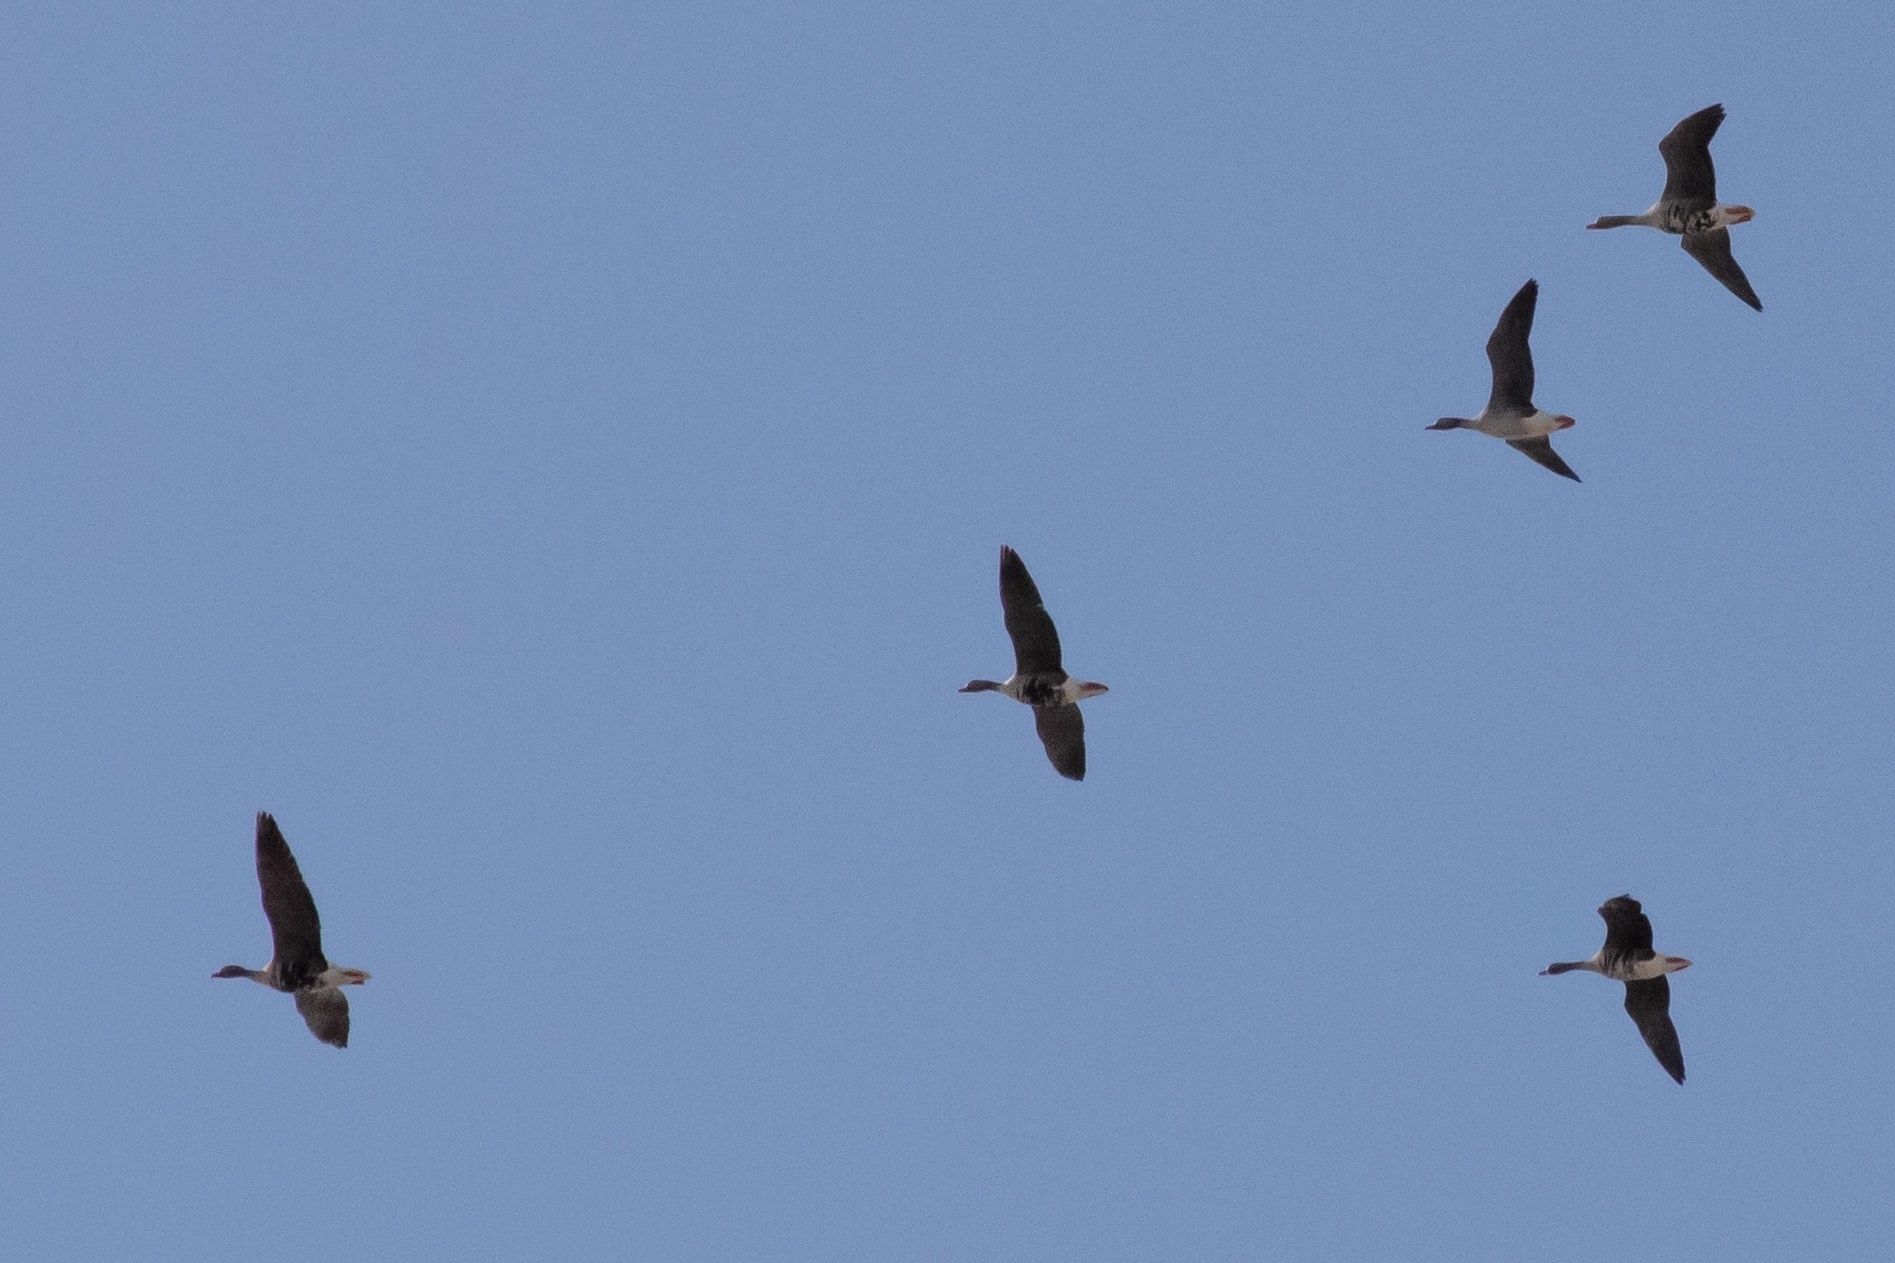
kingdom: Animalia
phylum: Chordata
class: Aves
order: Anseriformes
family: Anatidae
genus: Anser
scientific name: Anser albifrons
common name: Greater white-fronted goose
